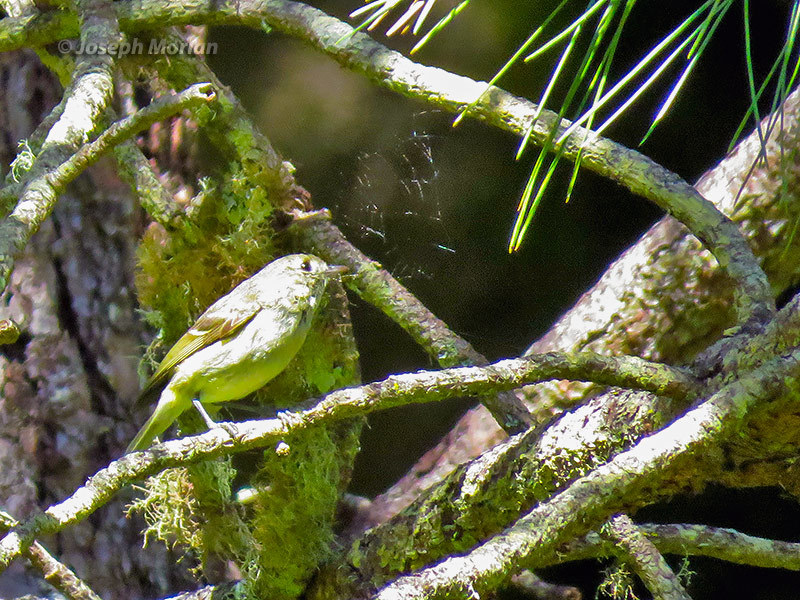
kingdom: Animalia
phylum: Chordata
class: Aves
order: Passeriformes
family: Vireonidae
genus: Vireo
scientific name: Vireo huttoni
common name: Hutton's vireo
